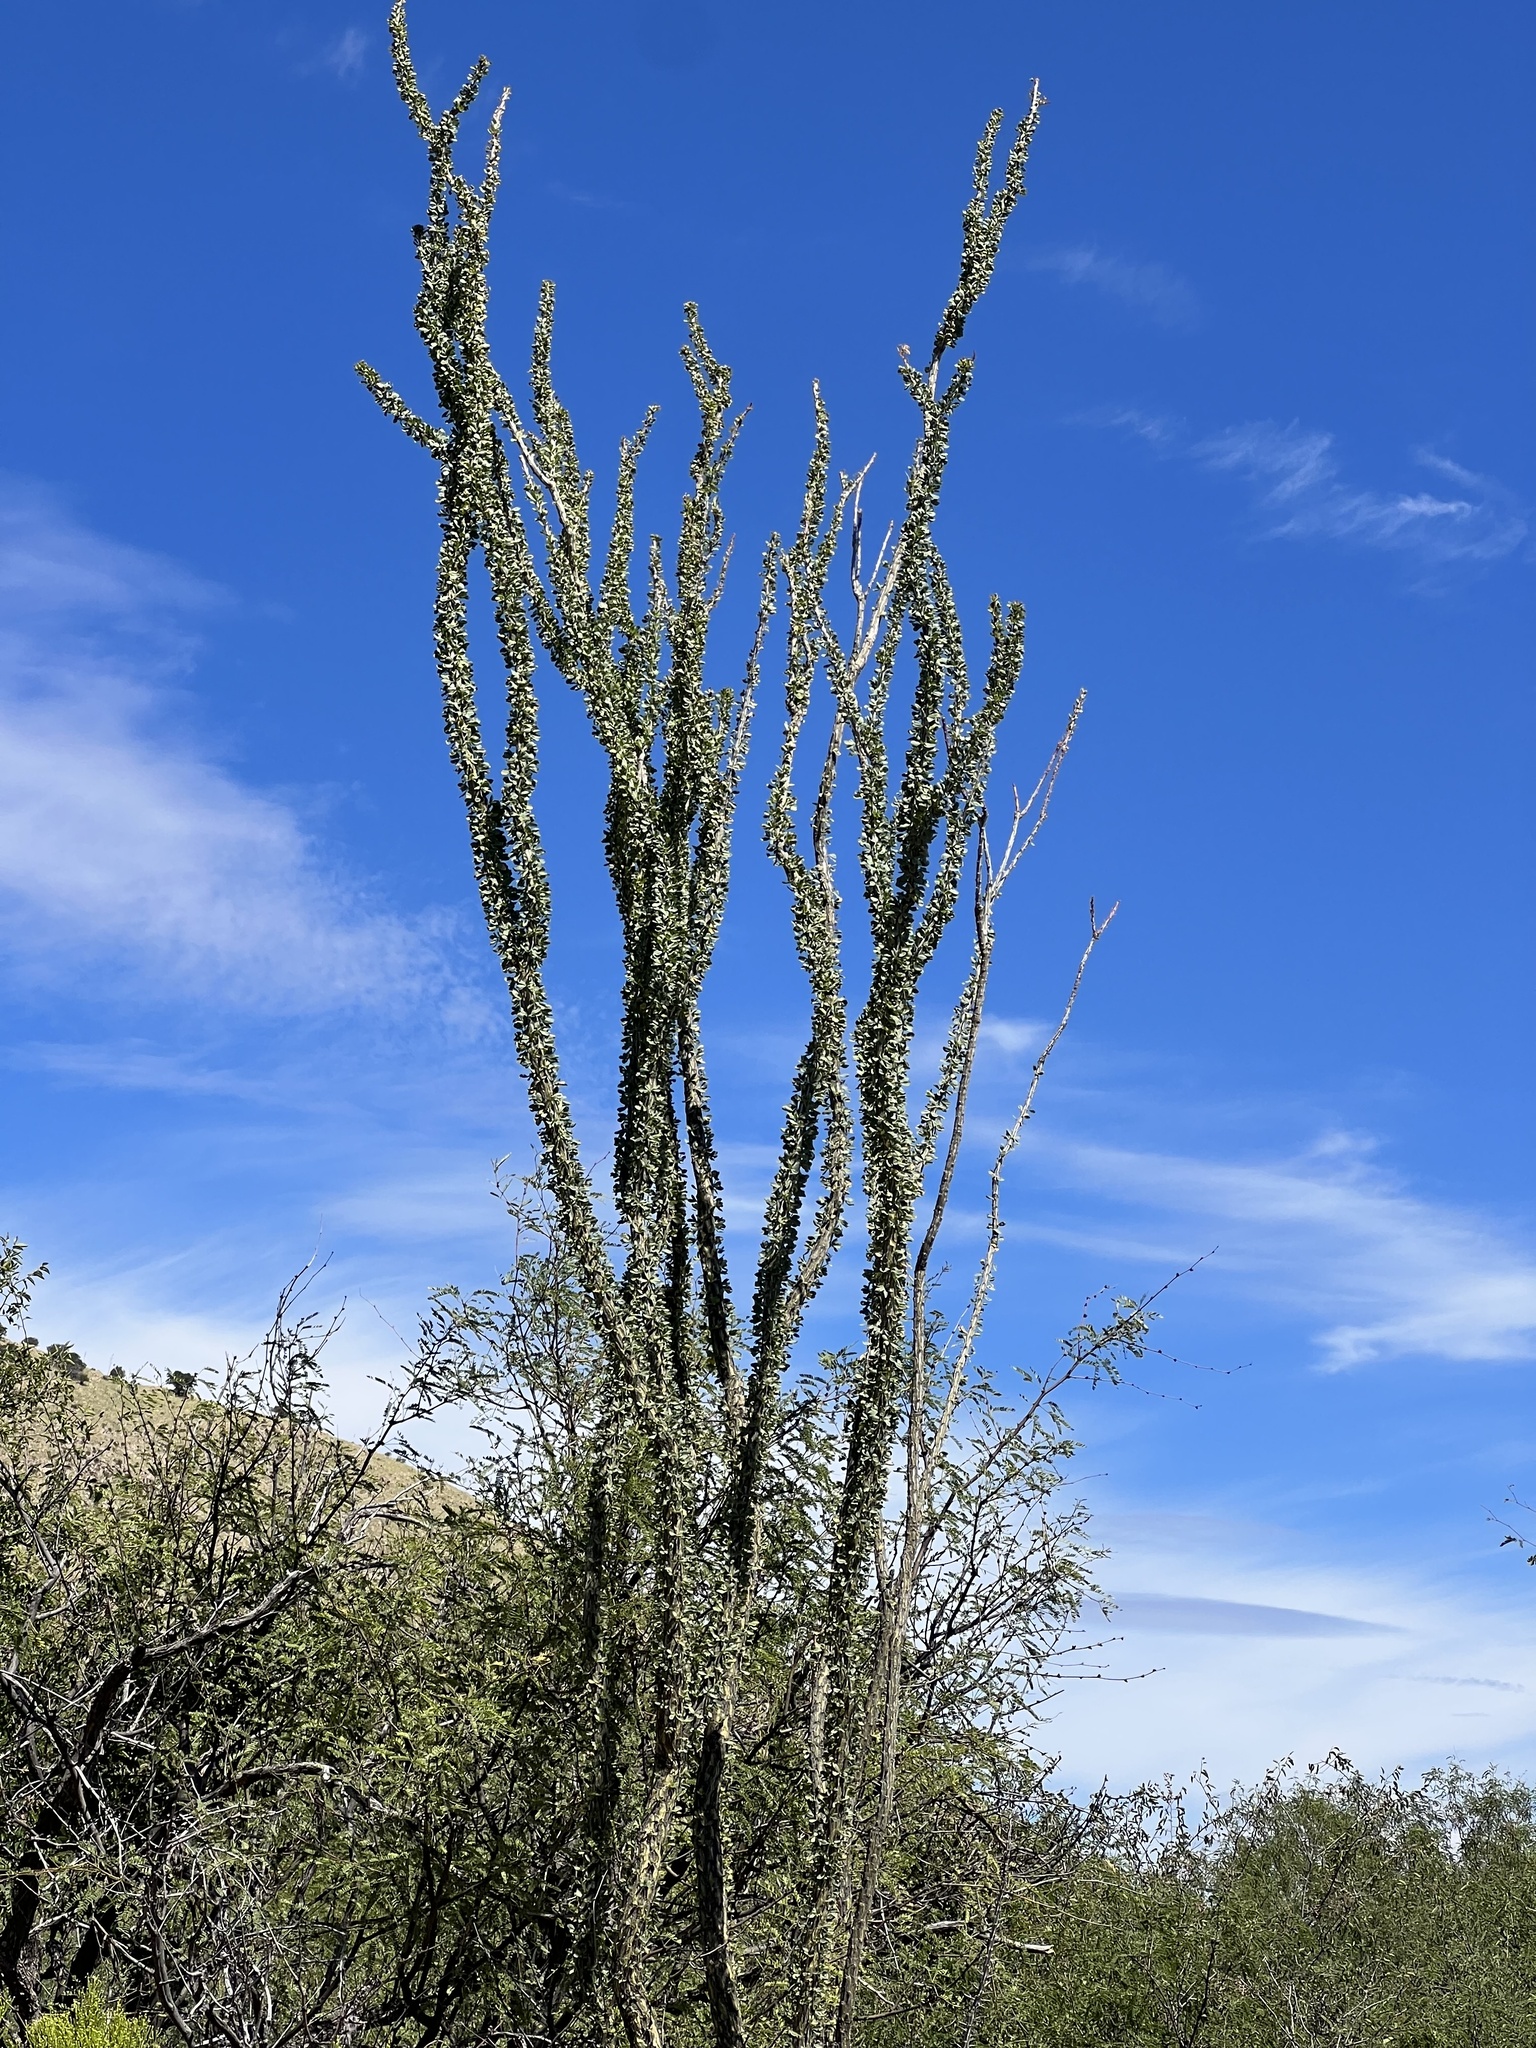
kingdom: Plantae
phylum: Tracheophyta
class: Magnoliopsida
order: Ericales
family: Fouquieriaceae
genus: Fouquieria
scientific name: Fouquieria splendens
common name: Vine-cactus
